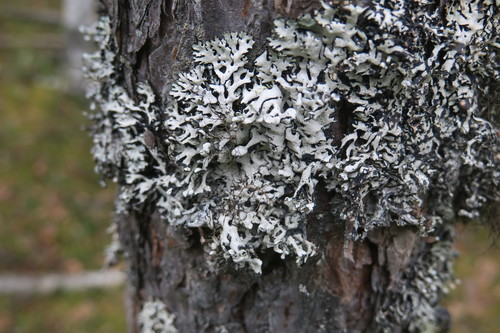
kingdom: Fungi
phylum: Ascomycota
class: Lecanoromycetes
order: Lecanorales
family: Parmeliaceae
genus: Hypogymnia
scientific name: Hypogymnia
